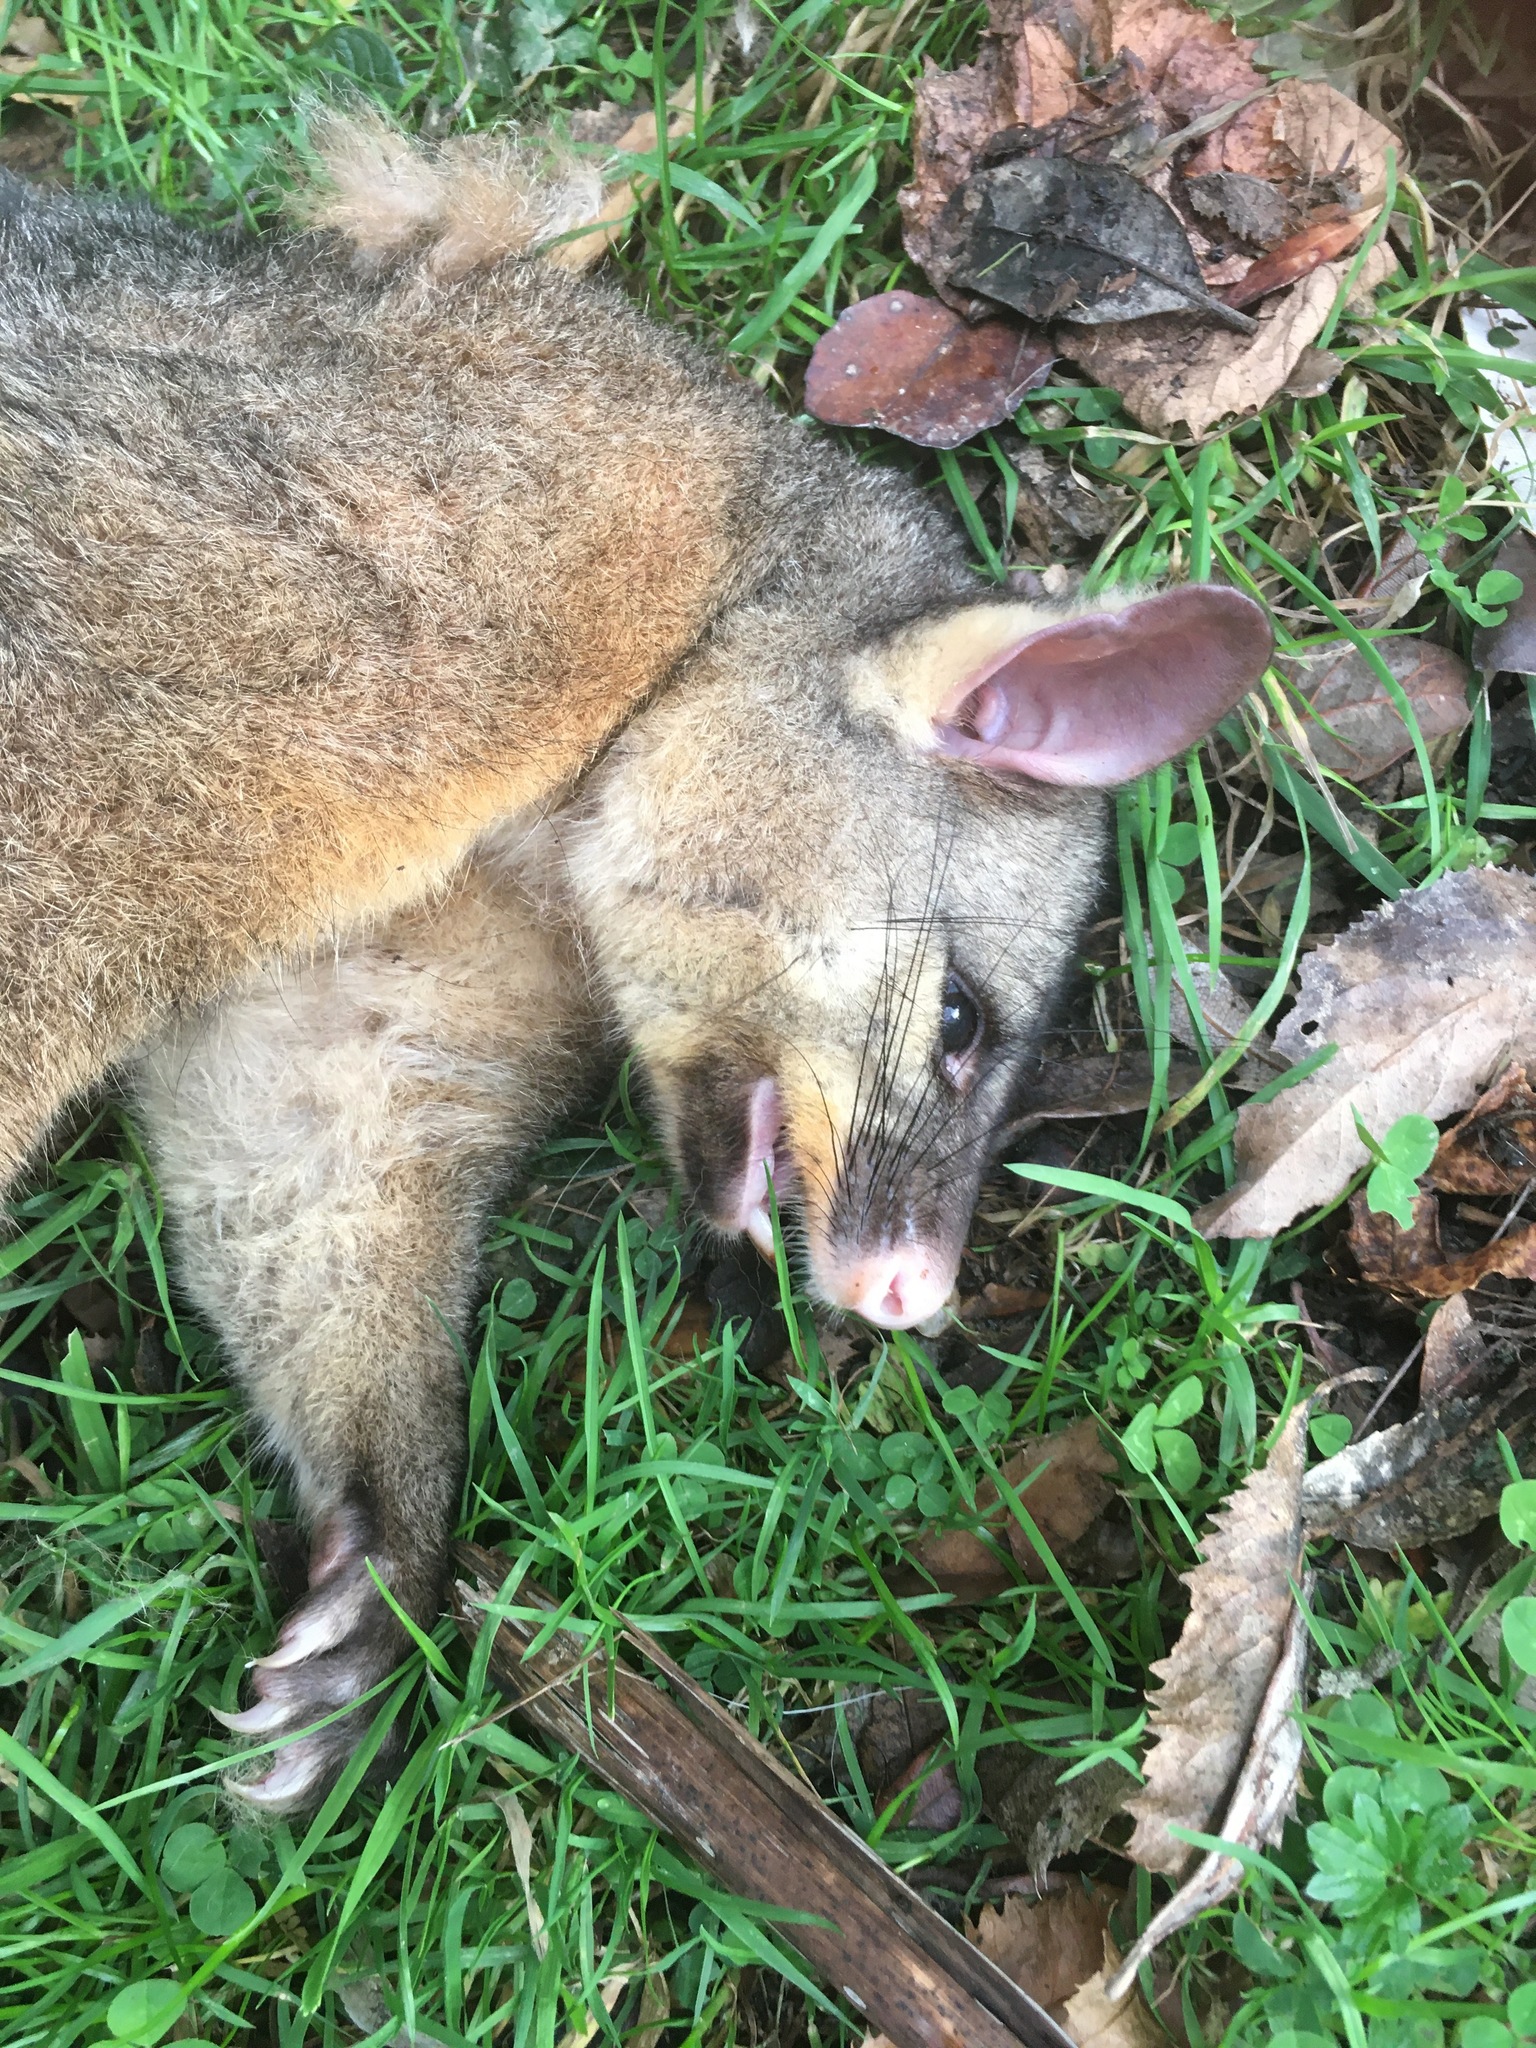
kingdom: Animalia
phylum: Chordata
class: Mammalia
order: Diprotodontia
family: Phalangeridae
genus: Trichosurus
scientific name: Trichosurus vulpecula
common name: Common brushtail
